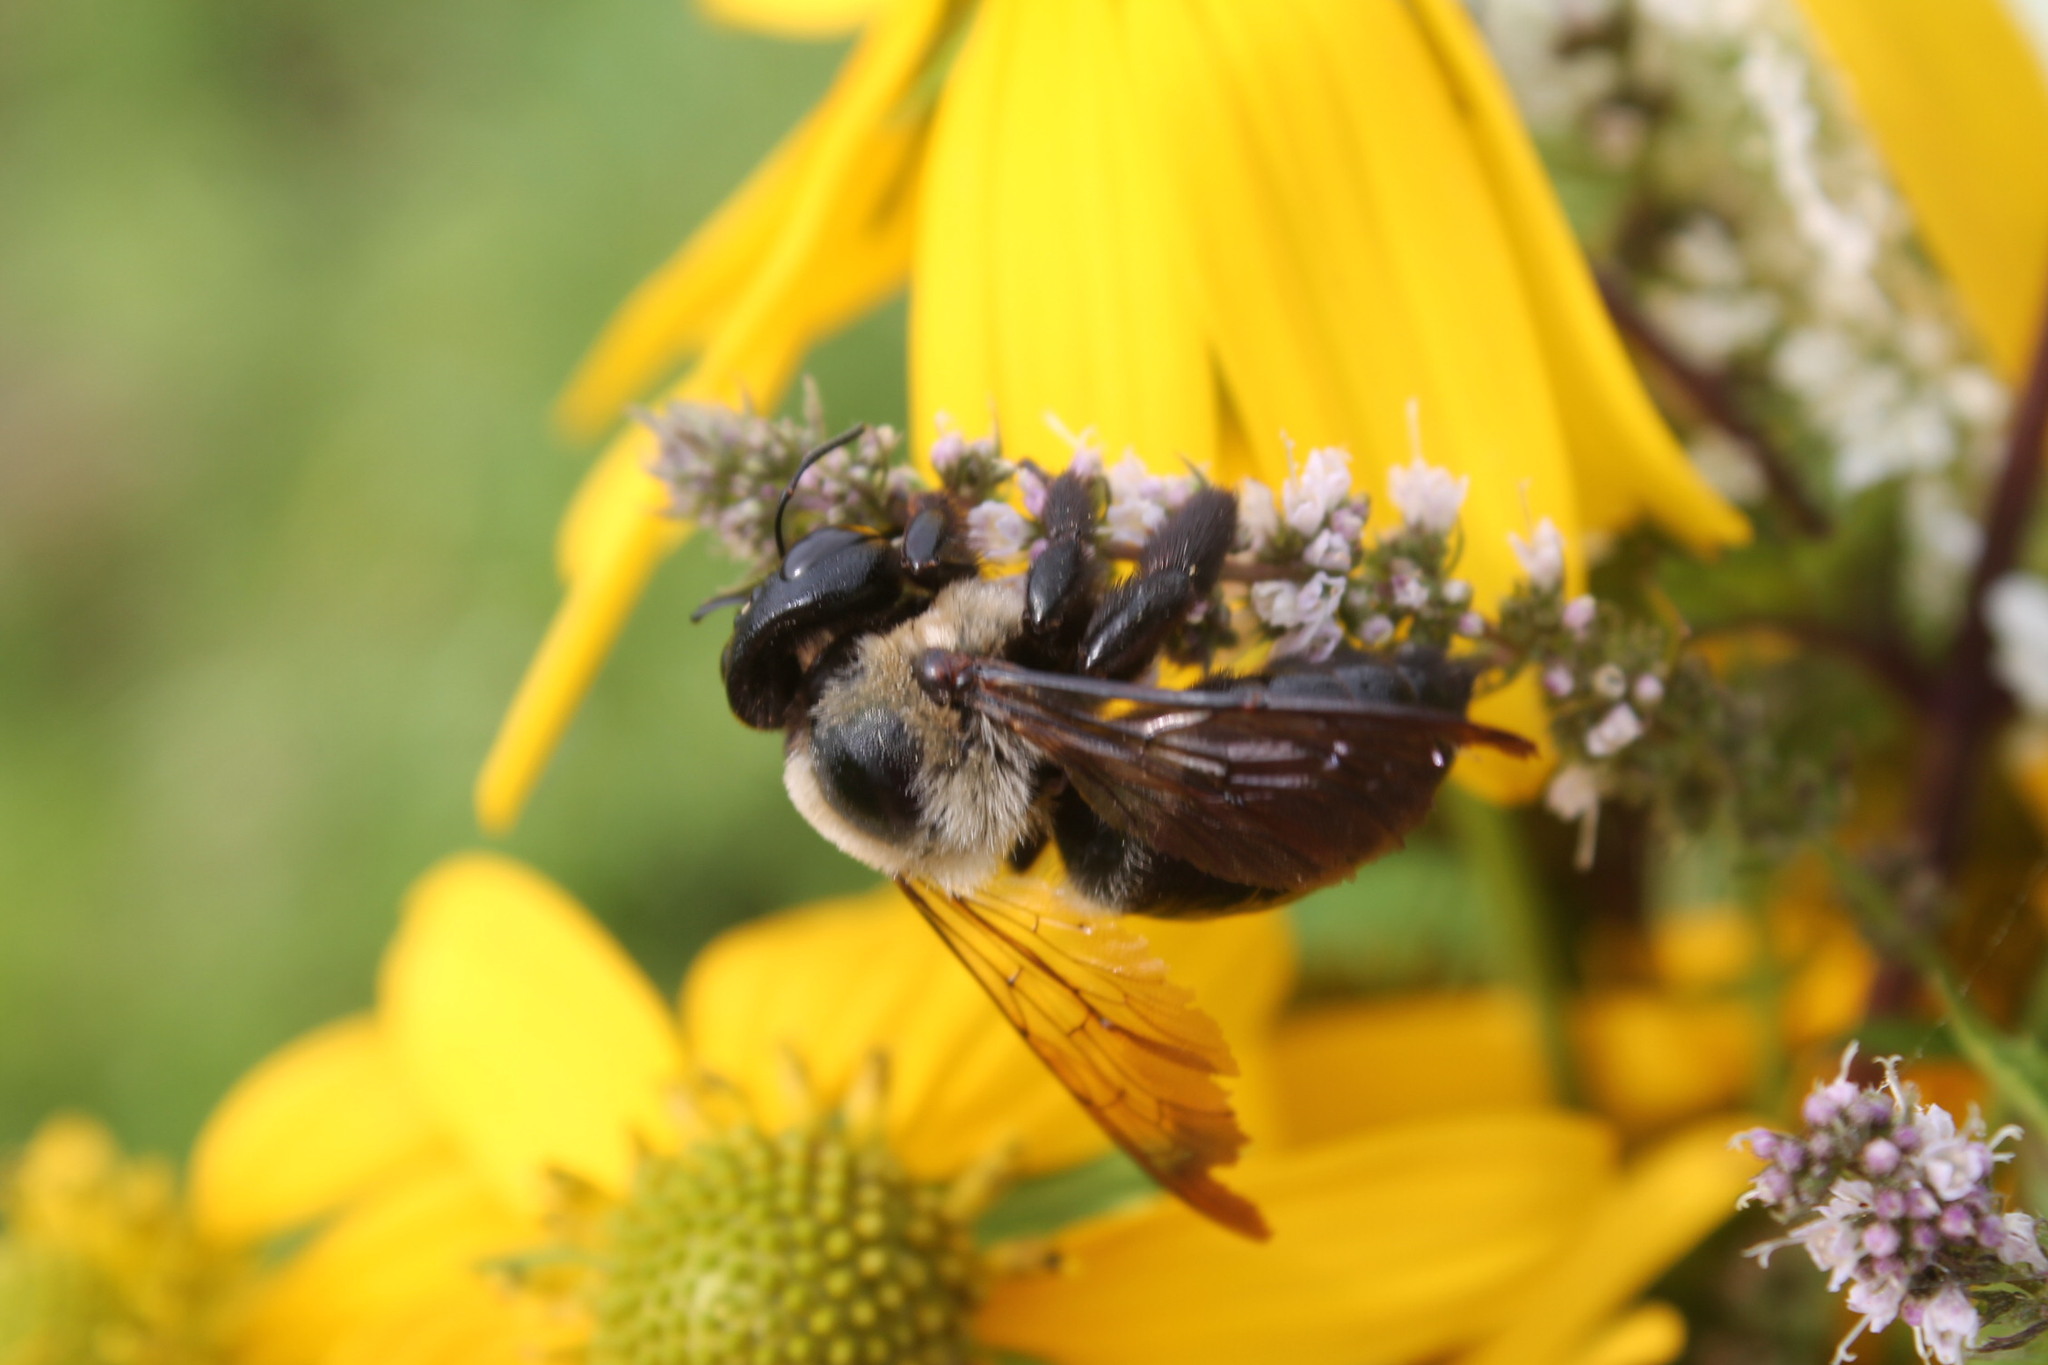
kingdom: Animalia
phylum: Arthropoda
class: Insecta
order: Hymenoptera
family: Apidae
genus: Xylocopa
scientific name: Xylocopa virginica
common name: Carpenter bee
